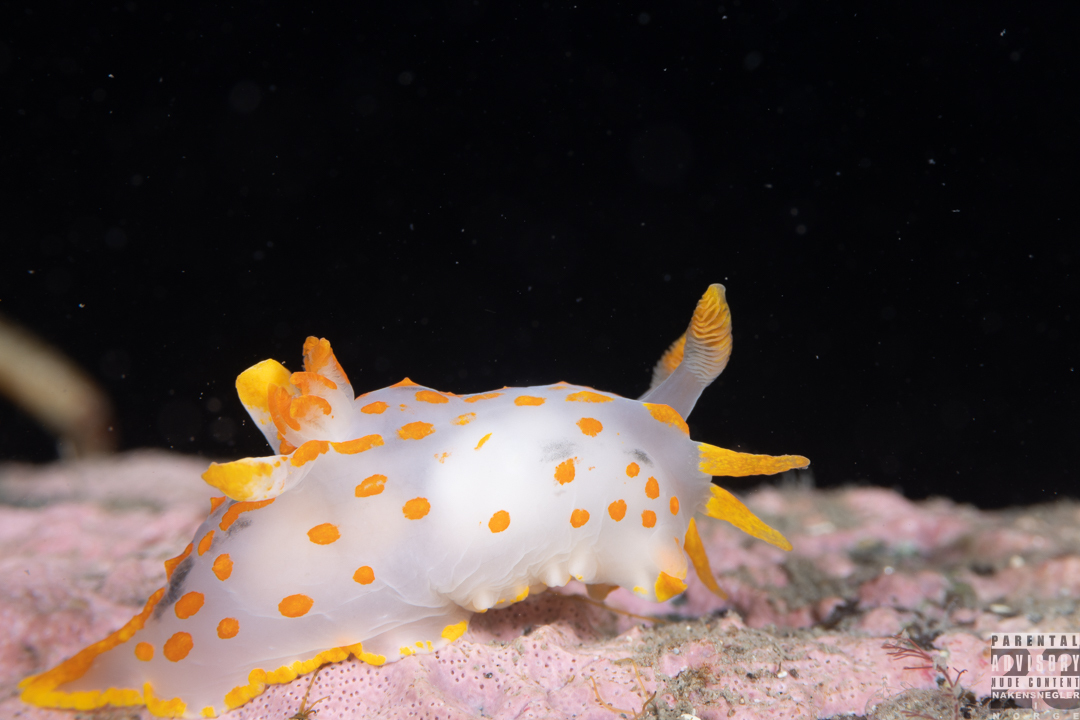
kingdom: Animalia
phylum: Mollusca
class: Gastropoda
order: Nudibranchia
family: Polyceridae
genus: Polycera
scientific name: Polycera quadrilineata
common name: Four-striped polycera
